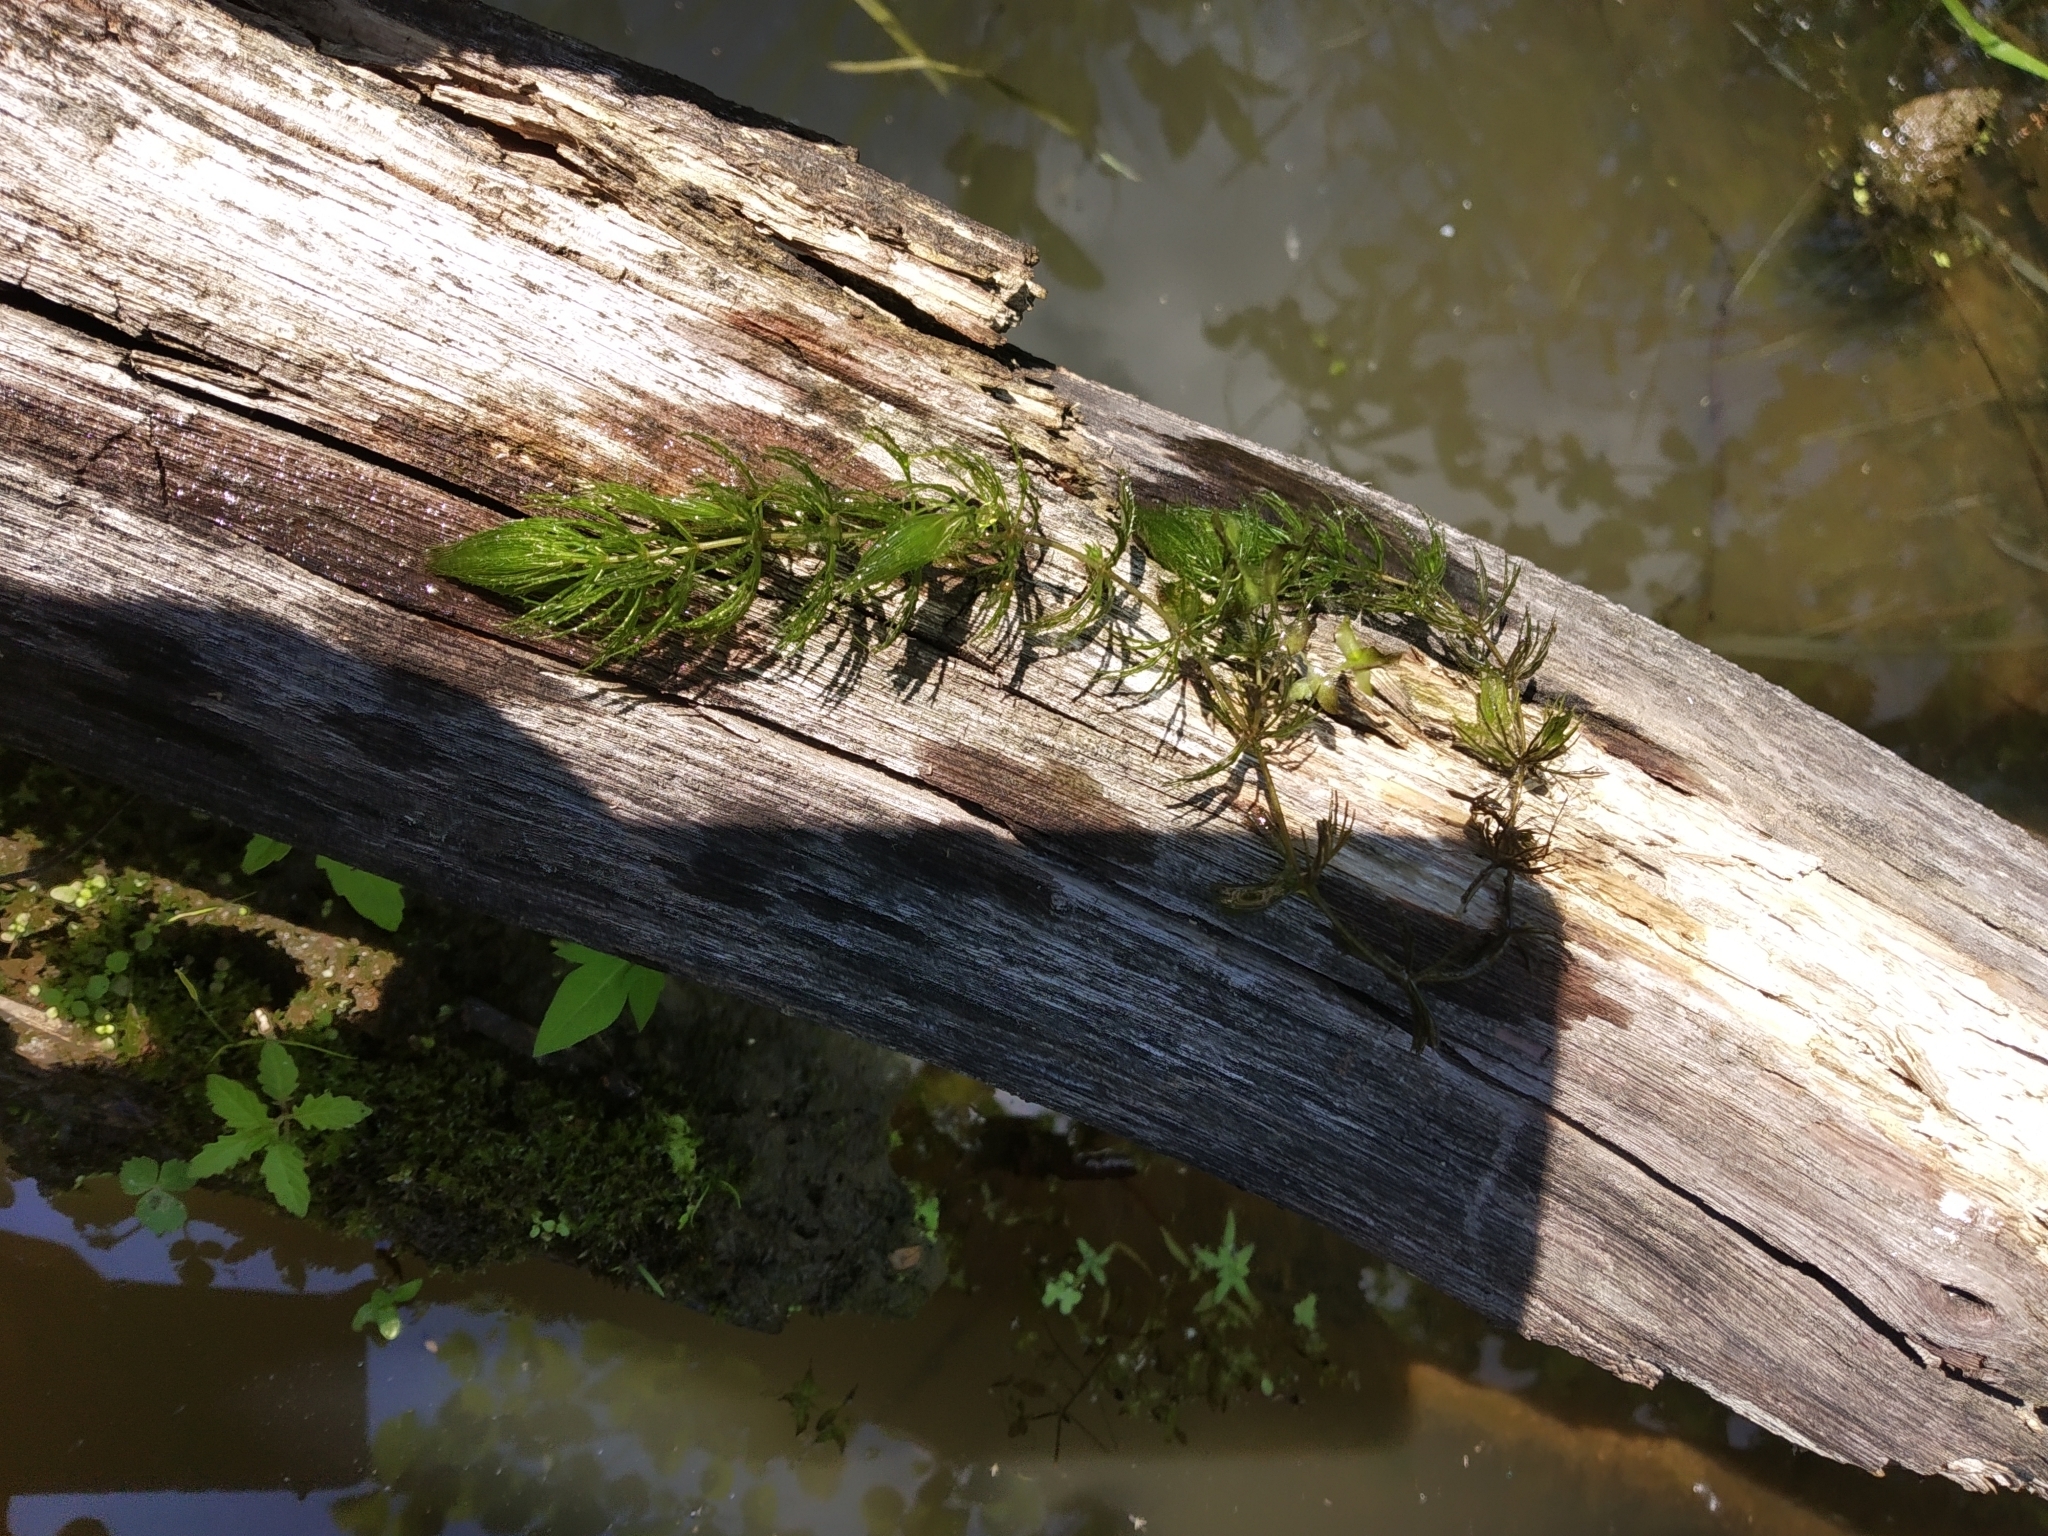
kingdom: Plantae
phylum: Tracheophyta
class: Magnoliopsida
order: Ceratophyllales
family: Ceratophyllaceae
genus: Ceratophyllum
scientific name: Ceratophyllum demersum
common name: Rigid hornwort
